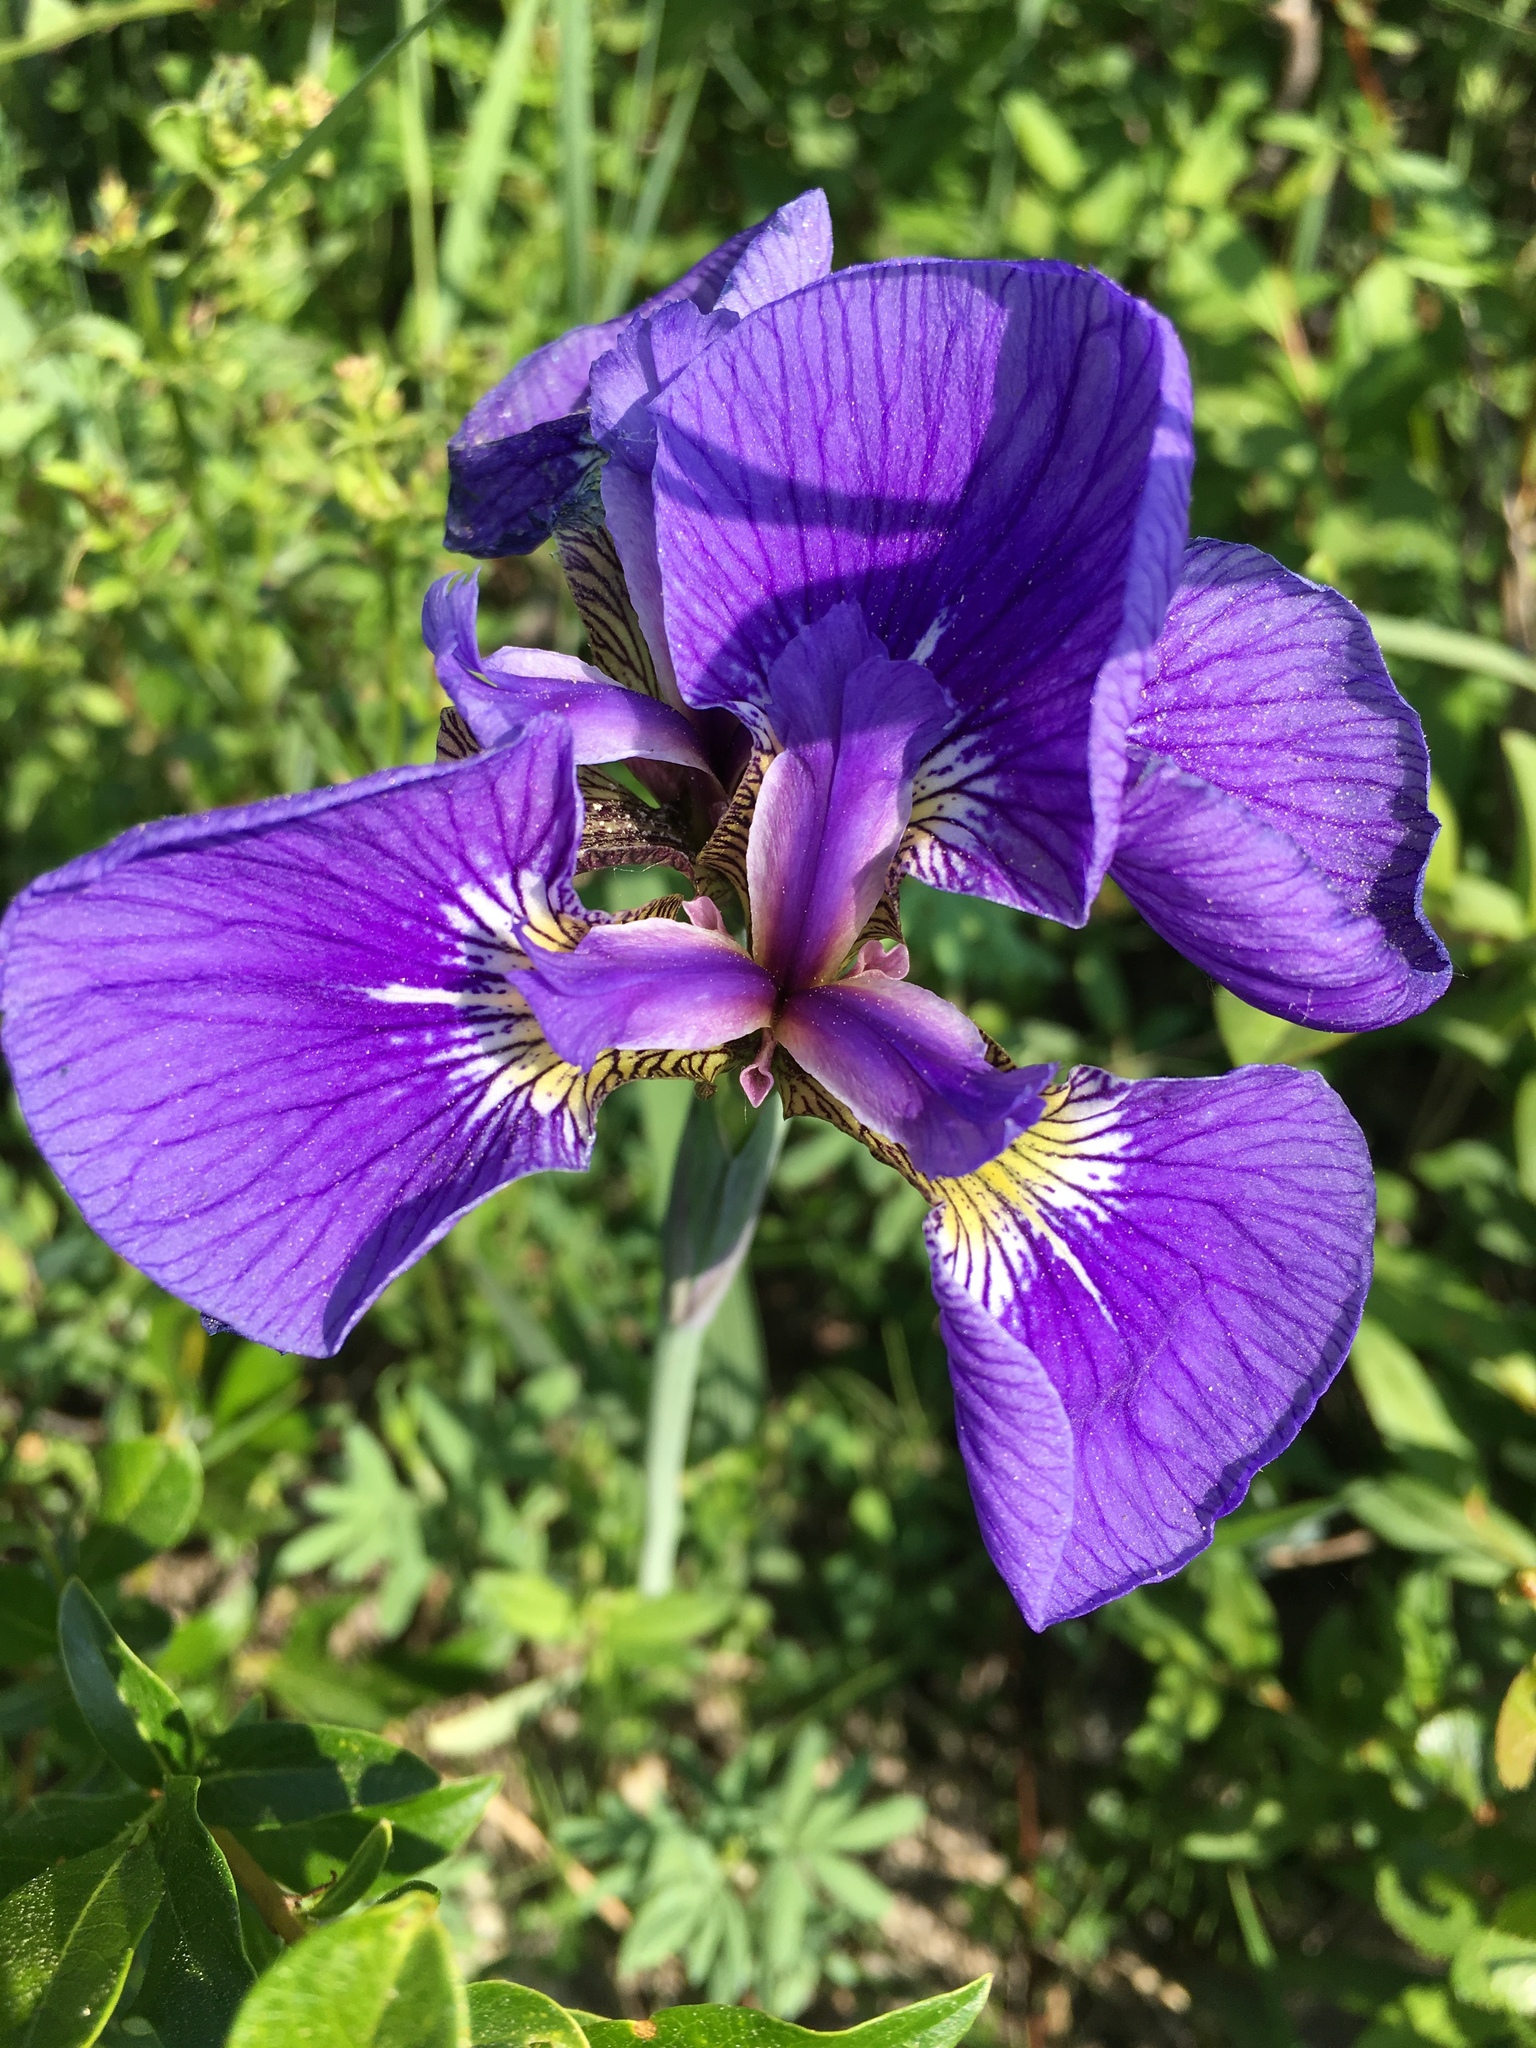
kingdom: Plantae
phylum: Tracheophyta
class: Liliopsida
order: Asparagales
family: Iridaceae
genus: Iris
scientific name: Iris setosa
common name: Arctic blue flag
